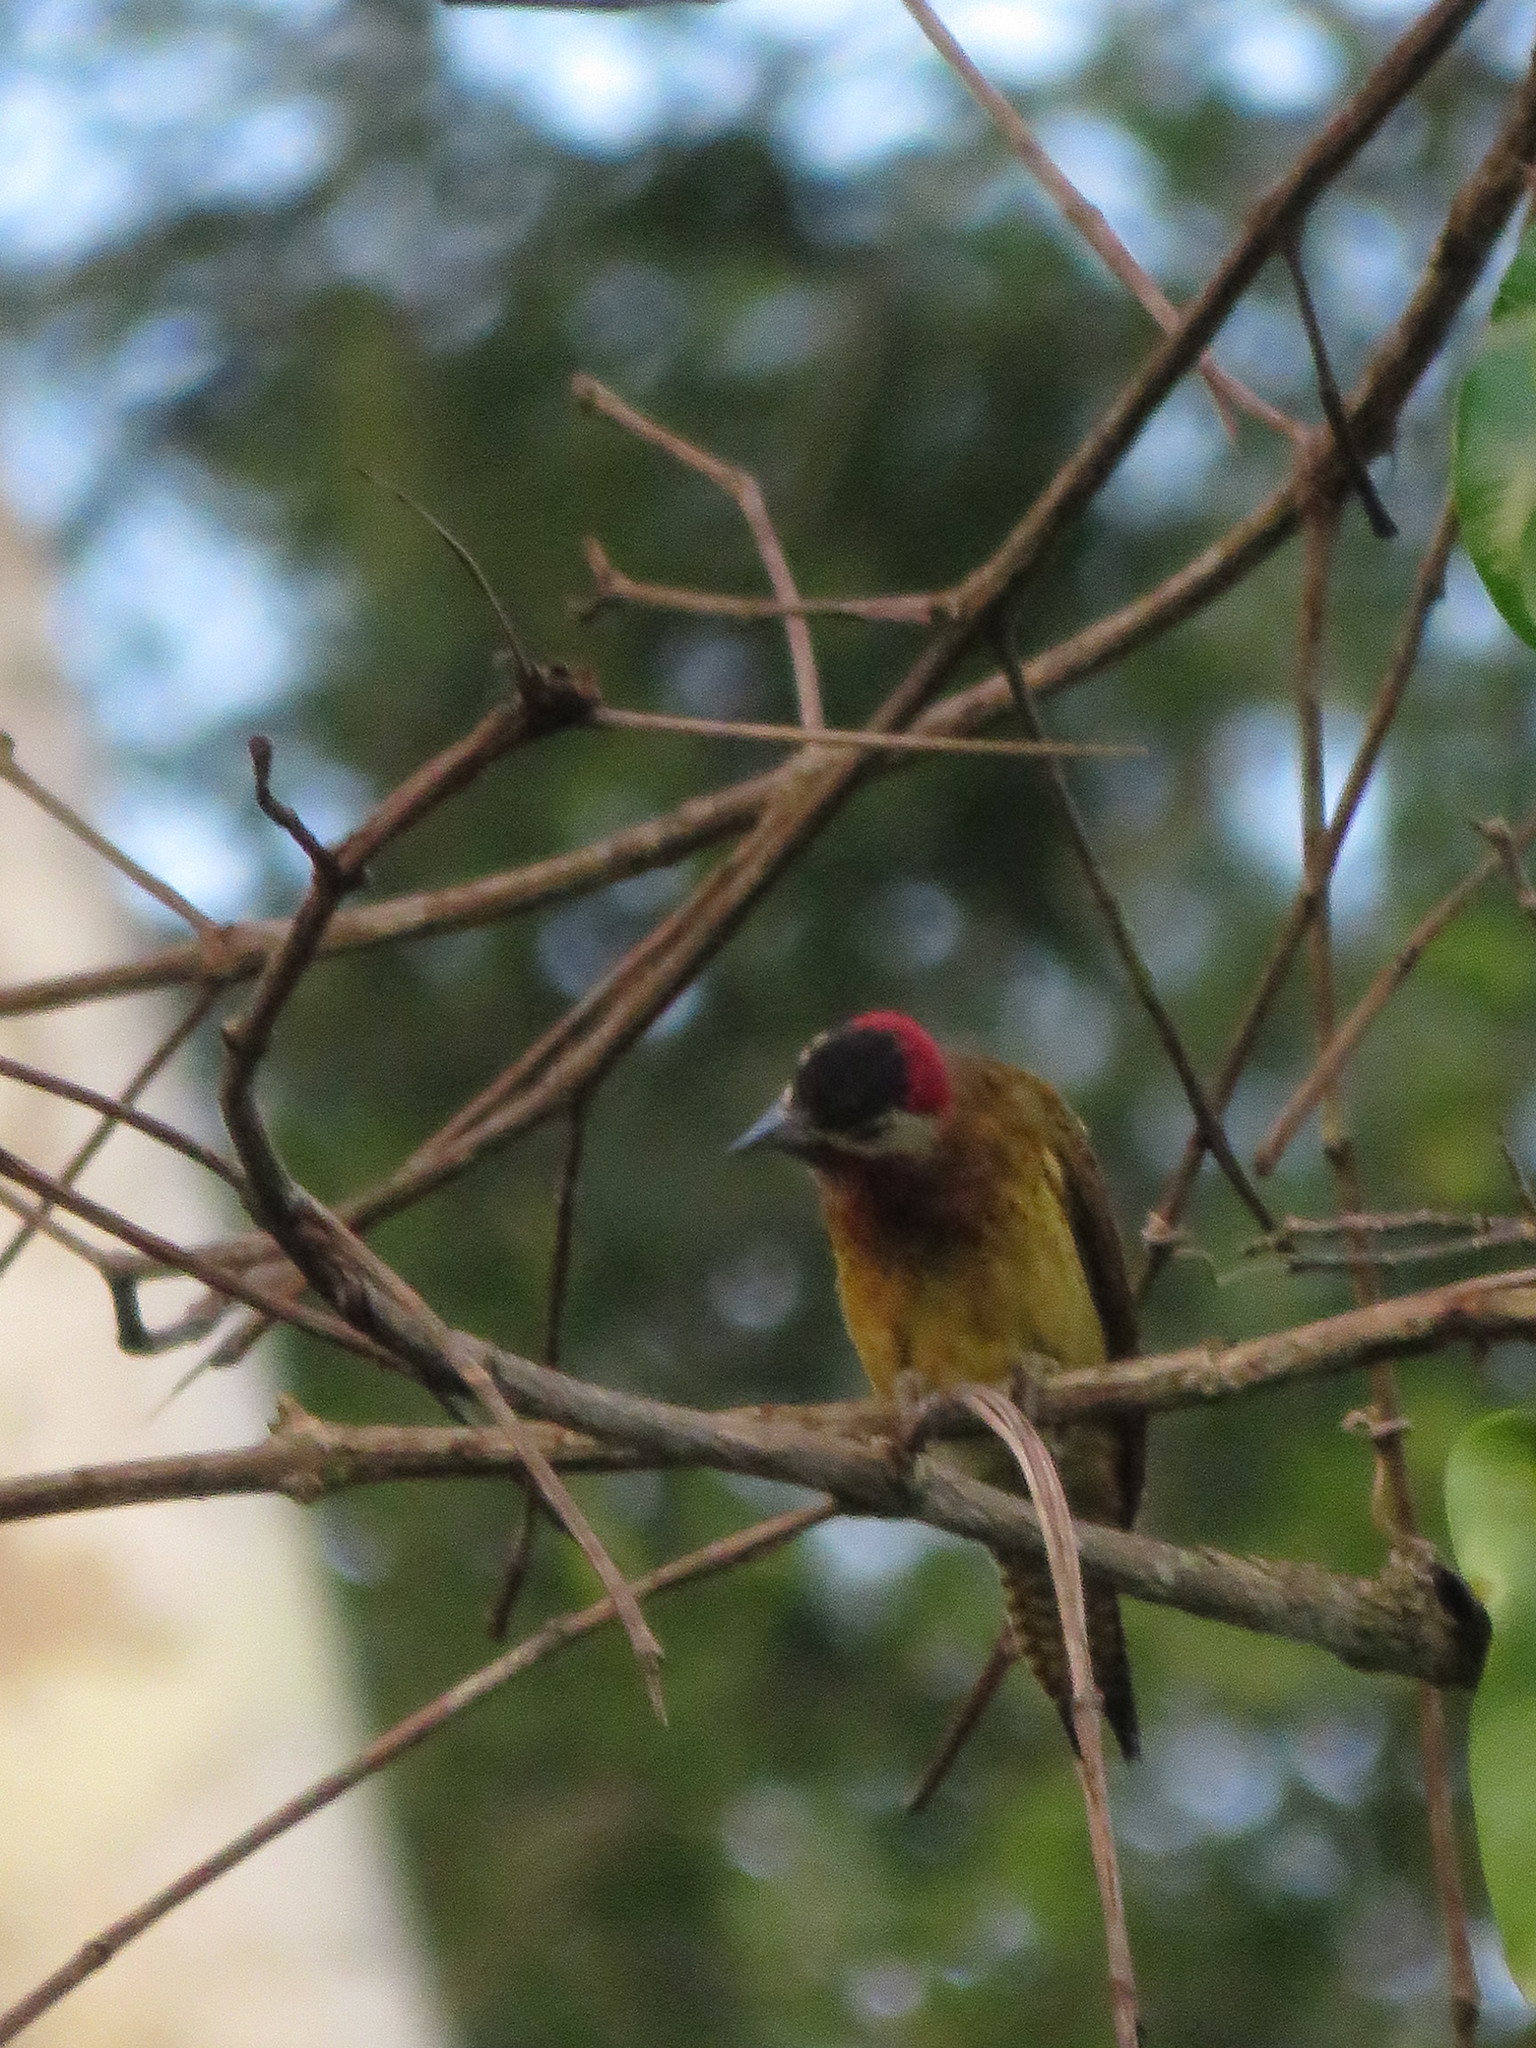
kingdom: Animalia
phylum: Chordata
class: Aves
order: Piciformes
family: Picidae
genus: Colaptes
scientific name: Colaptes punctigula
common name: Spot-breasted woodpecker
